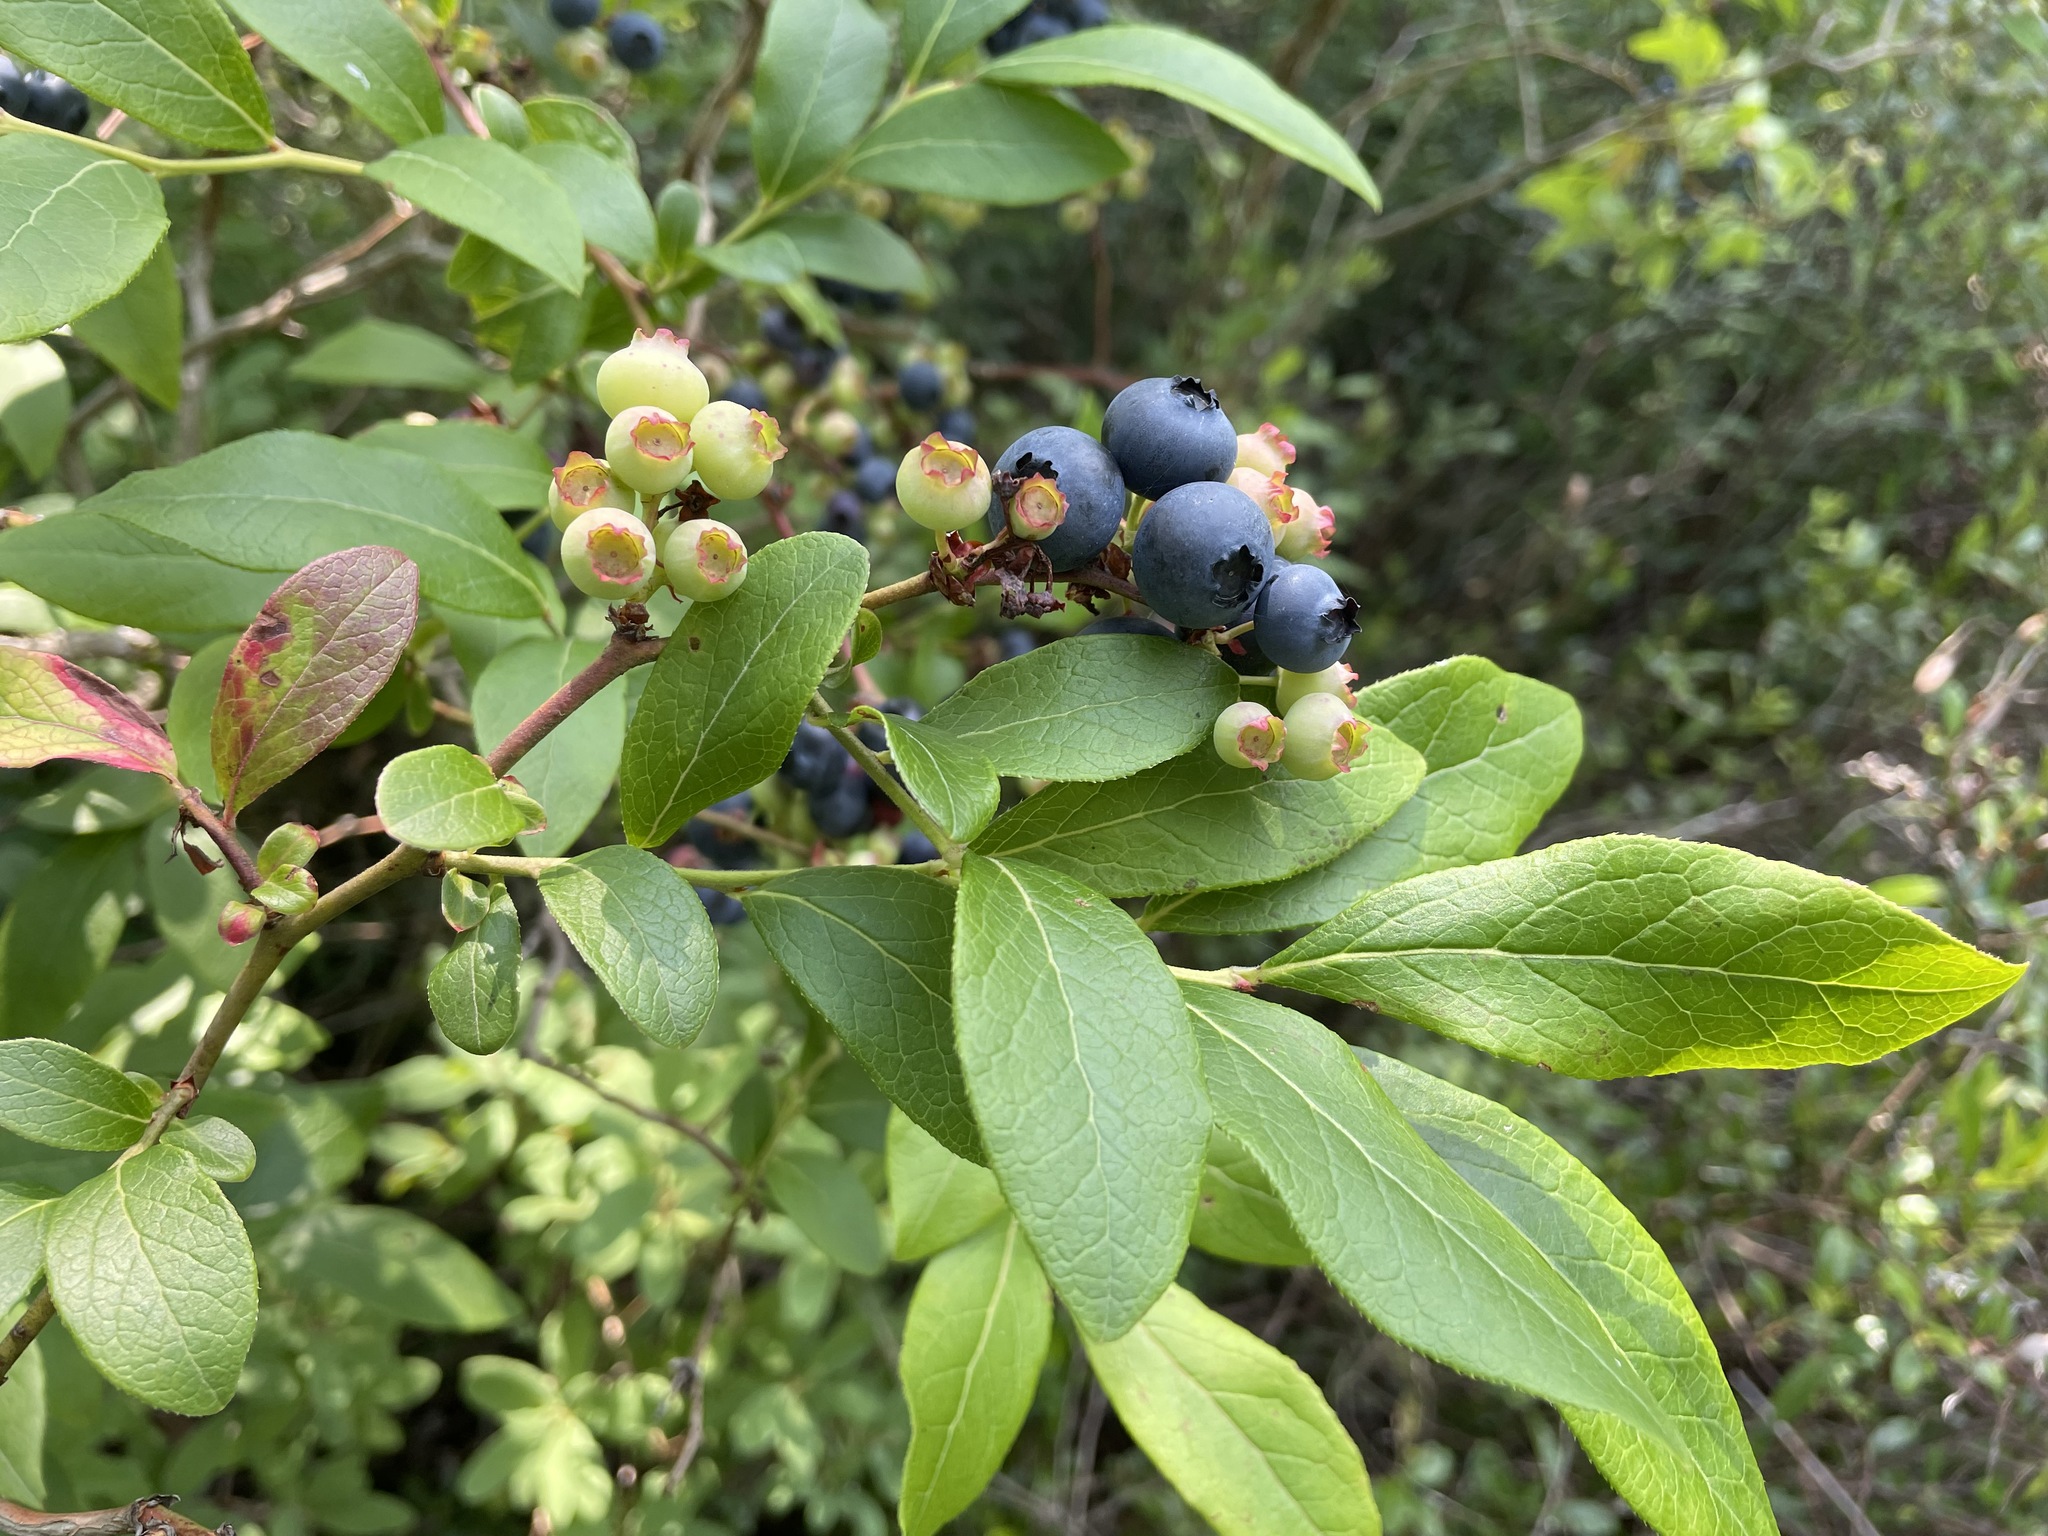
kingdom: Plantae
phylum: Tracheophyta
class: Magnoliopsida
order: Ericales
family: Ericaceae
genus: Vaccinium
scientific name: Vaccinium corymbosum
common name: Blueberry
